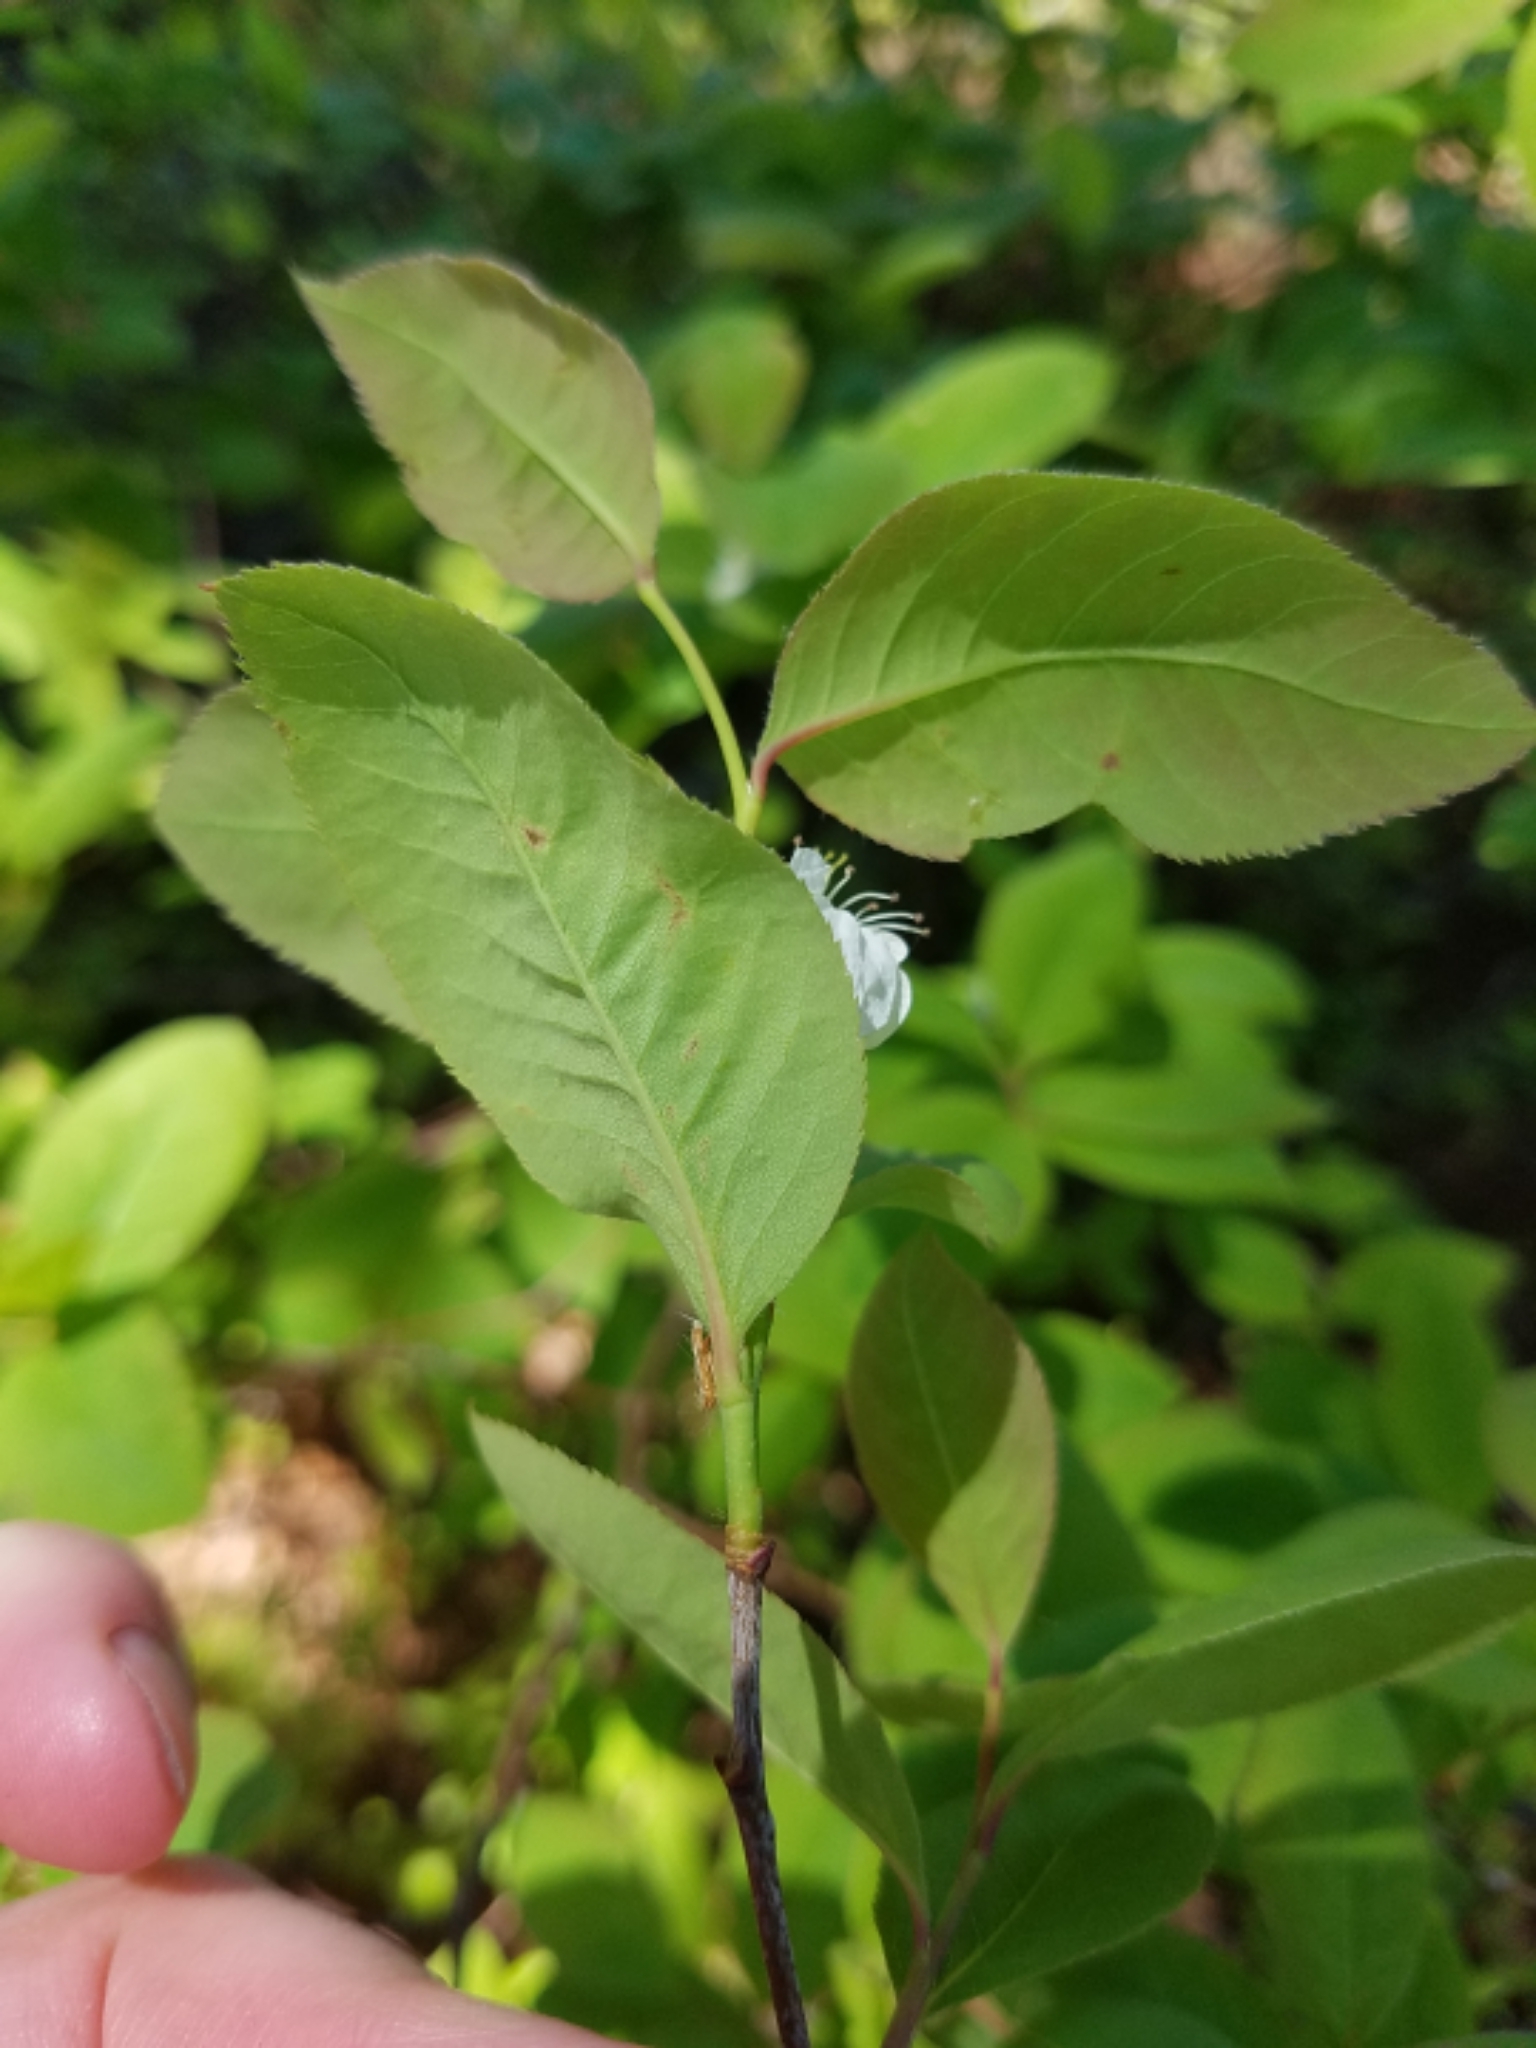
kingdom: Plantae
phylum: Tracheophyta
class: Magnoliopsida
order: Rosales
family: Rosaceae
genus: Amelanchier
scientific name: Amelanchier bartramiana
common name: Mountain serviceberry
